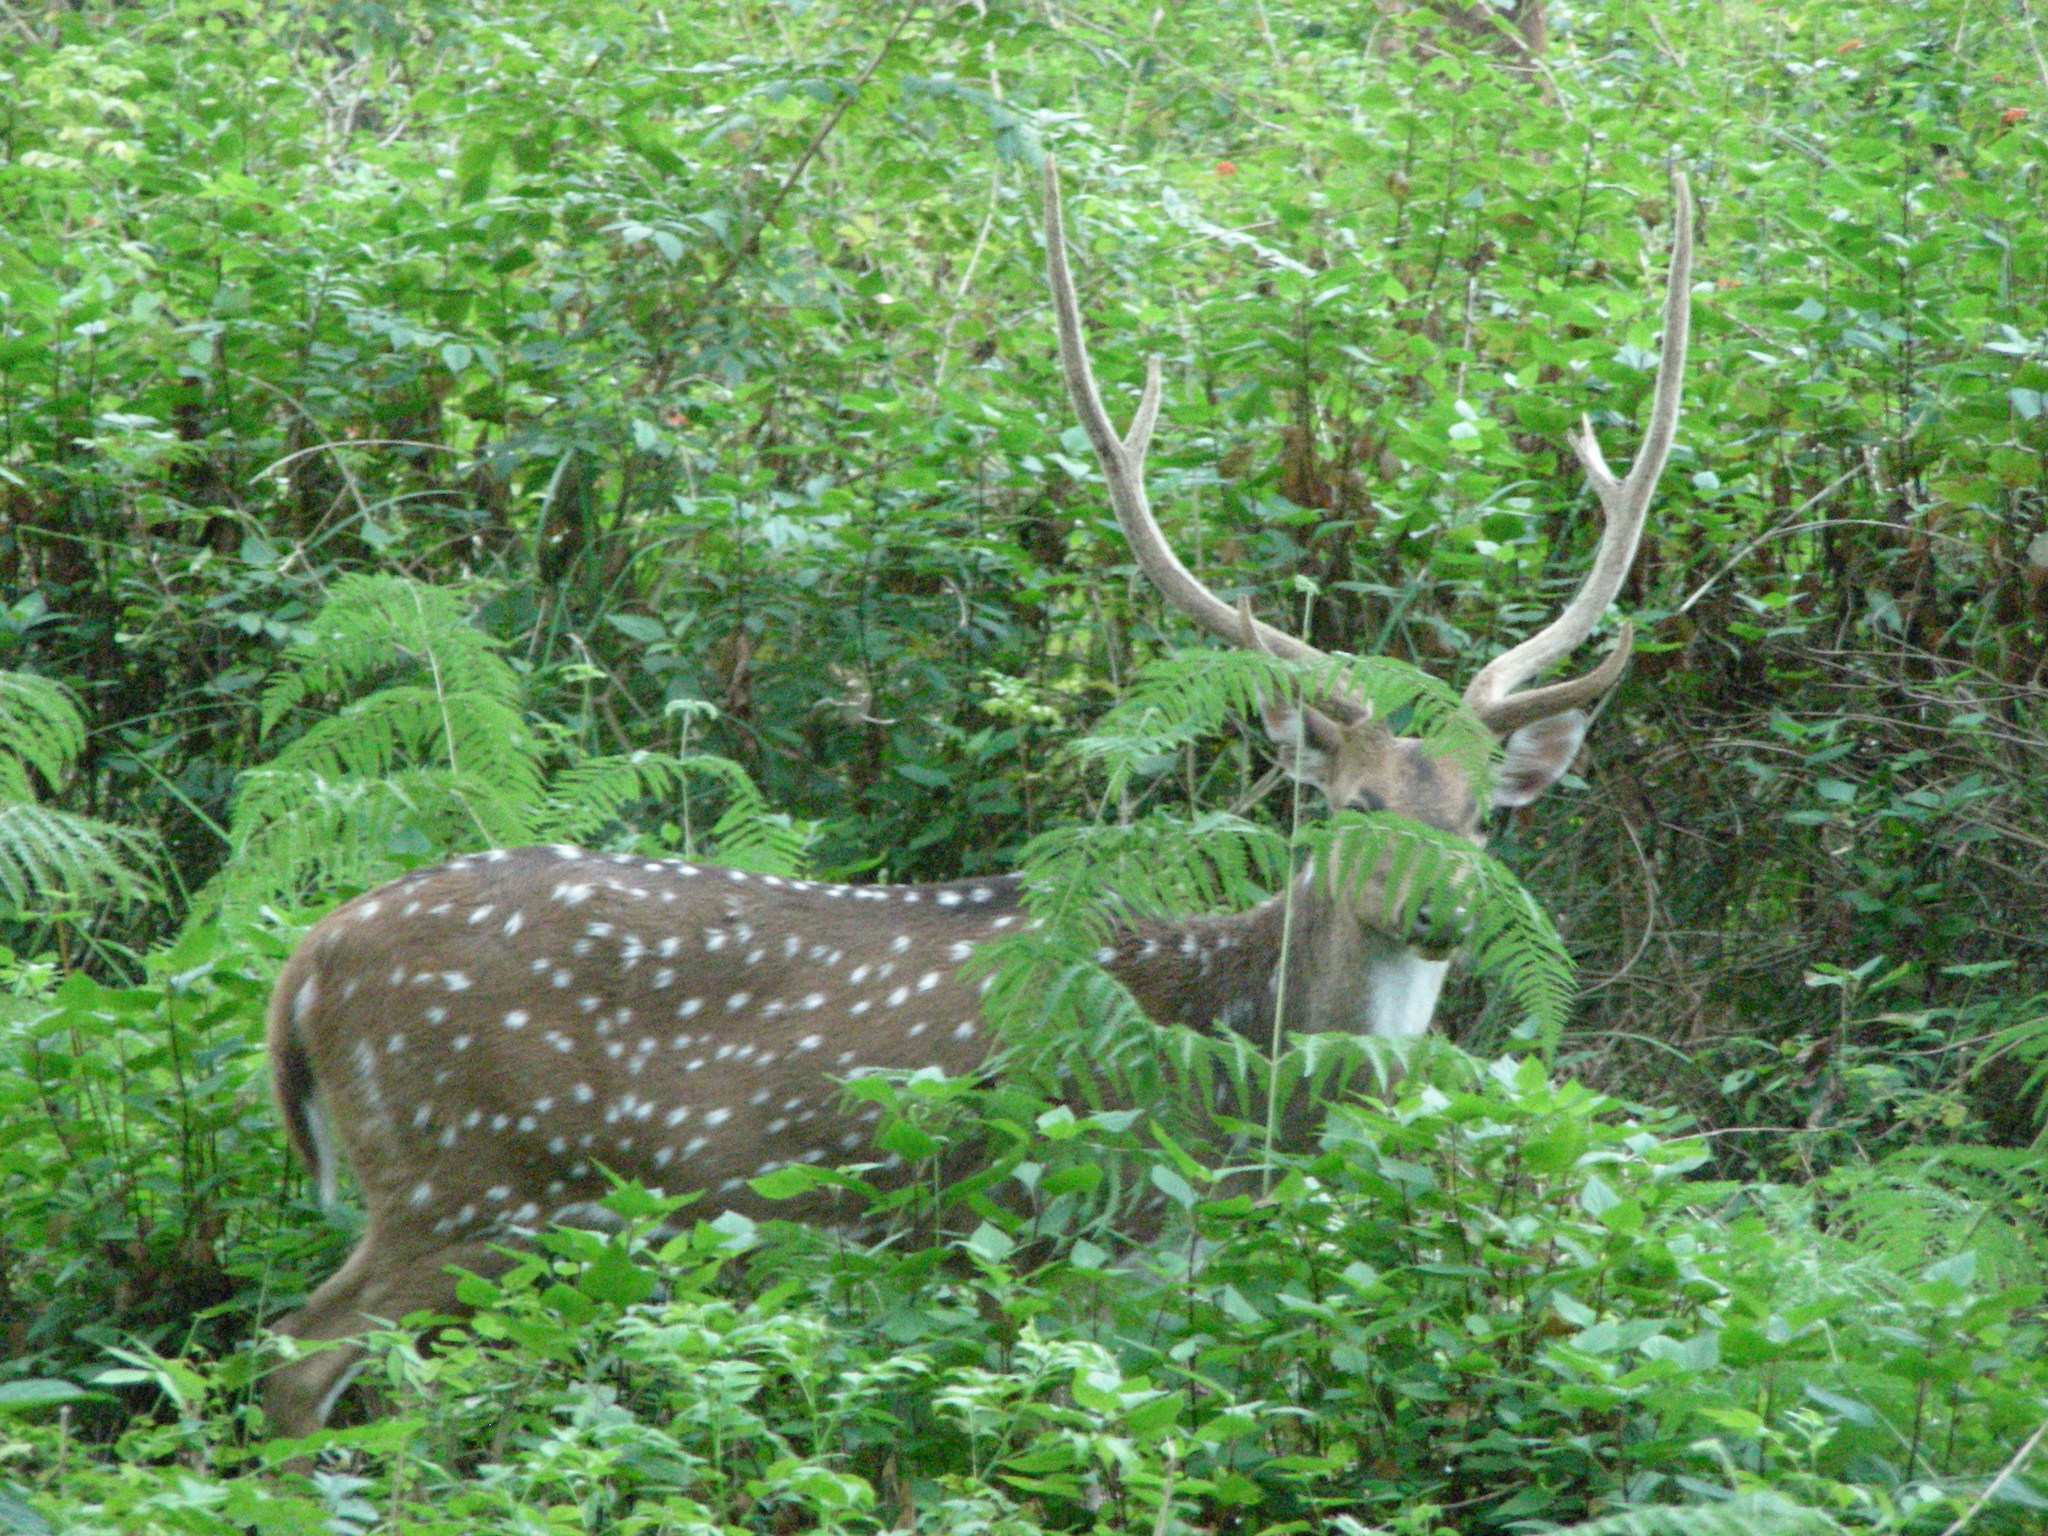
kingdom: Animalia
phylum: Chordata
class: Mammalia
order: Artiodactyla
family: Cervidae
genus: Axis
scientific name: Axis axis
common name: Chital
